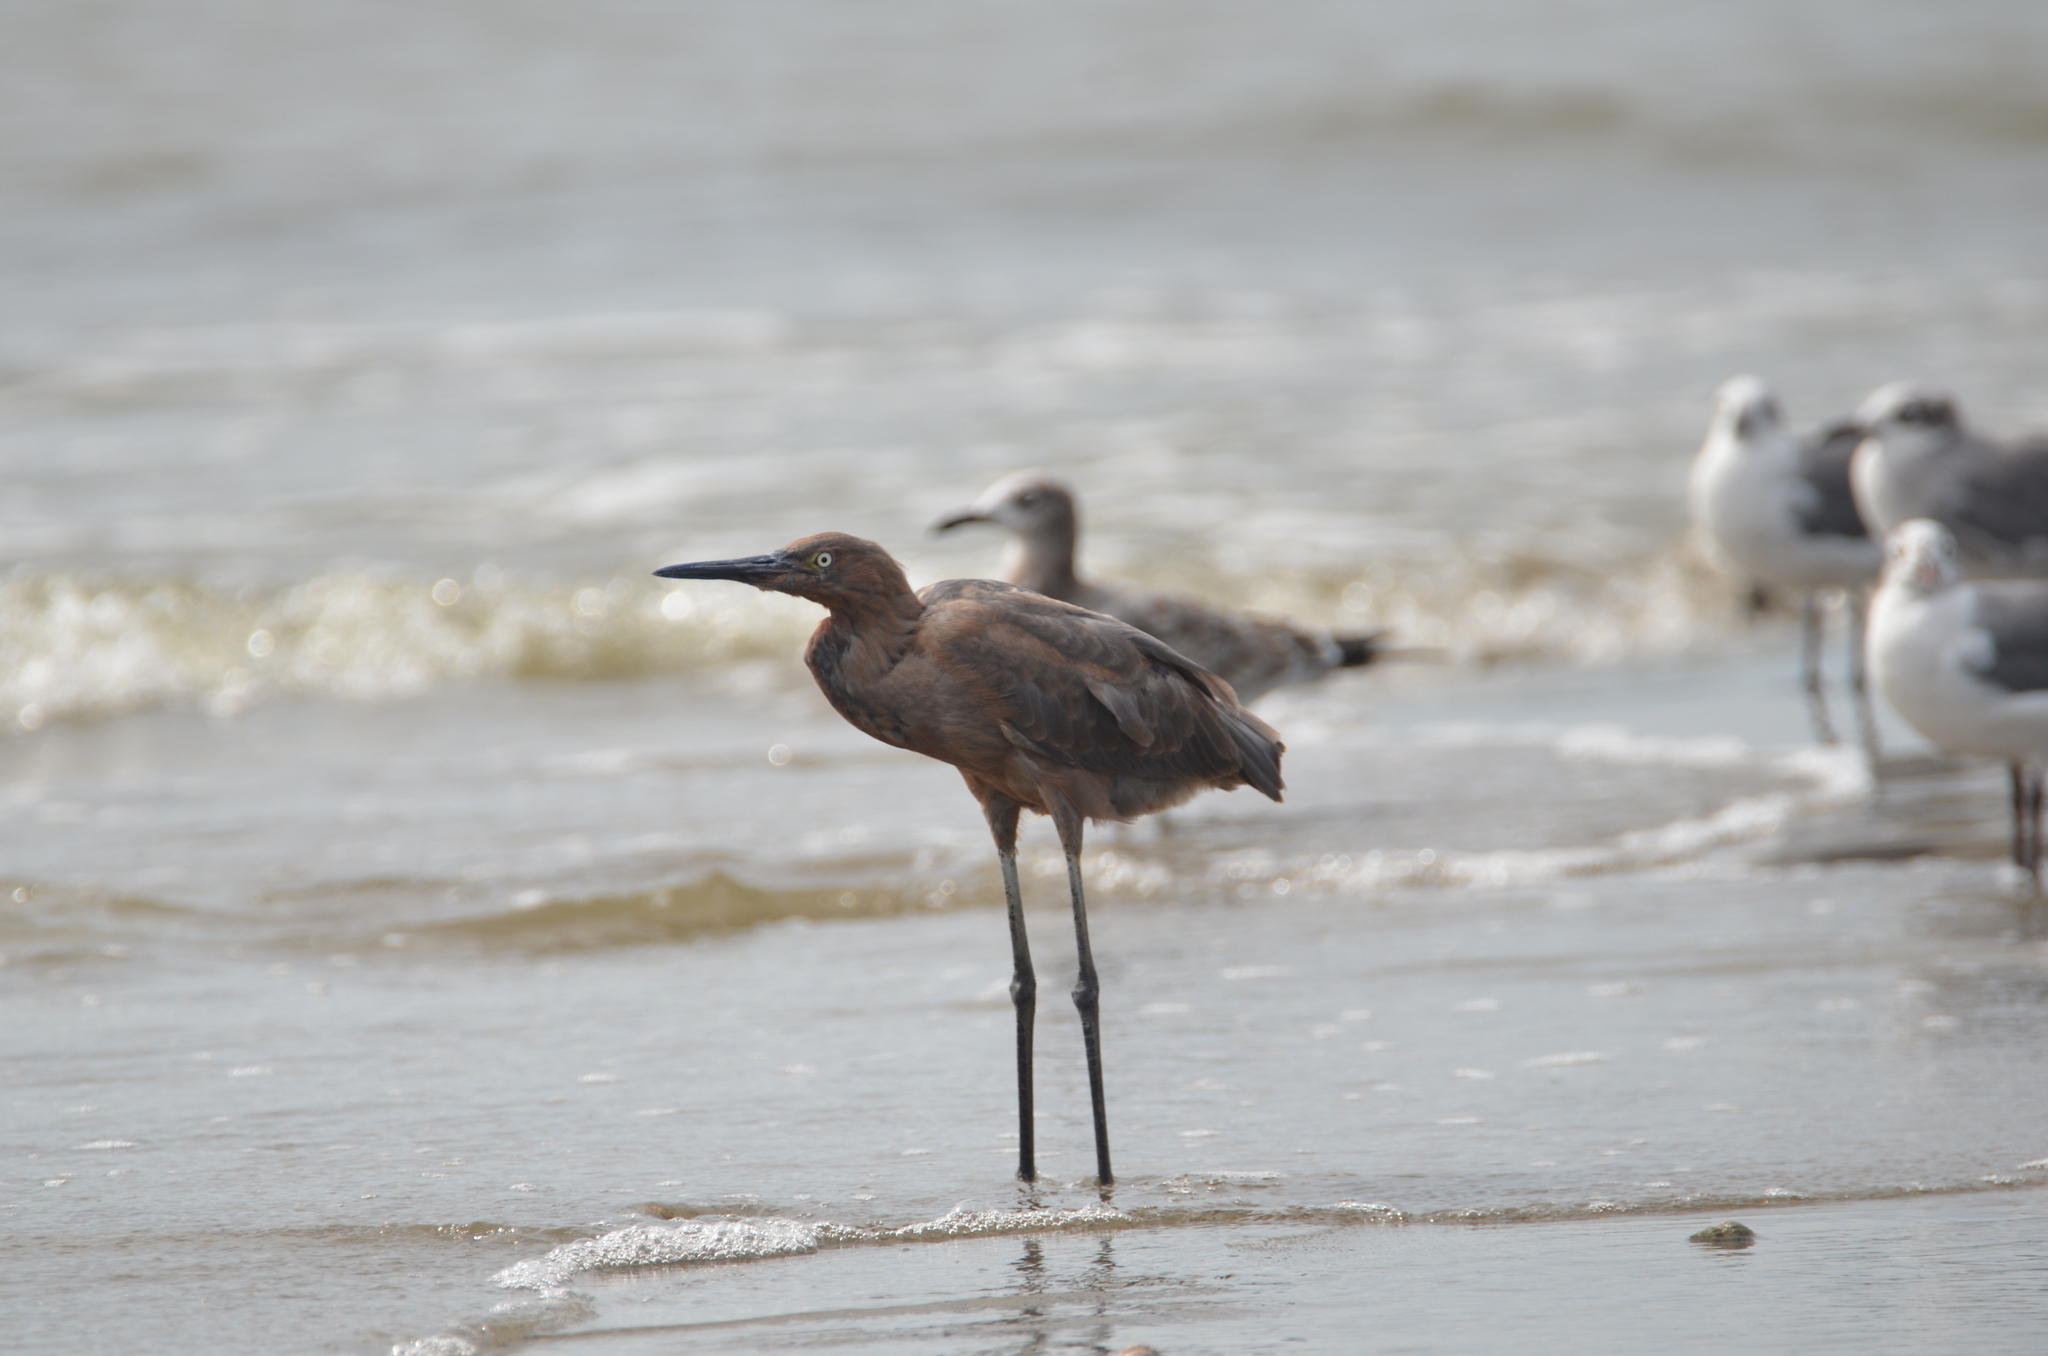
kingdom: Animalia
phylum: Chordata
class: Aves
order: Pelecaniformes
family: Ardeidae
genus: Egretta
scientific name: Egretta rufescens
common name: Reddish egret
